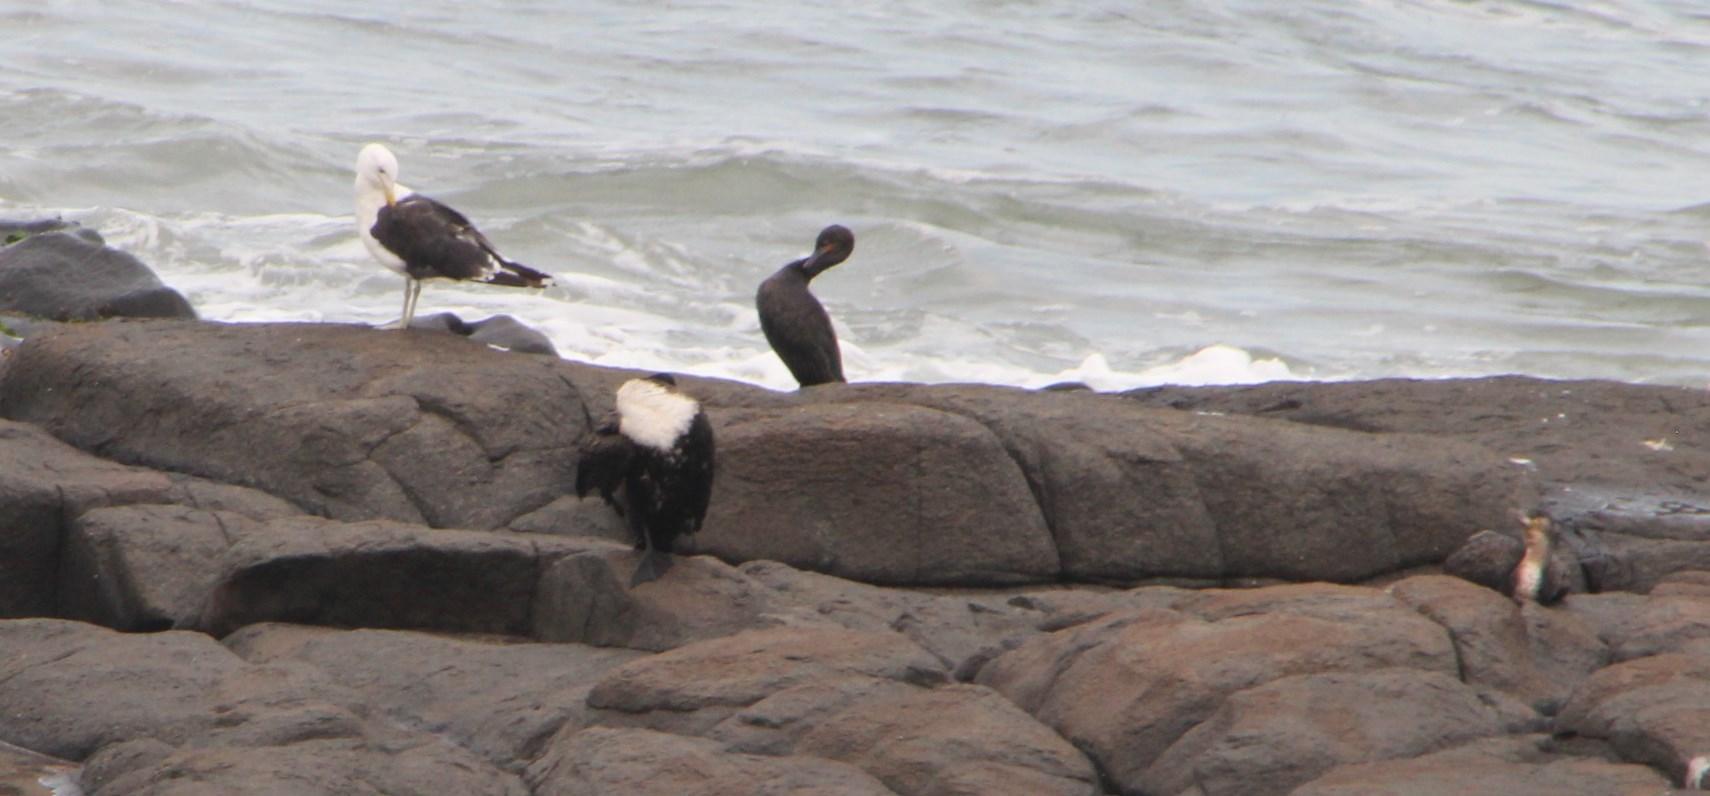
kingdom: Animalia
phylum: Chordata
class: Aves
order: Suliformes
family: Phalacrocoracidae
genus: Phalacrocorax
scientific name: Phalacrocorax carbo
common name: Great cormorant
